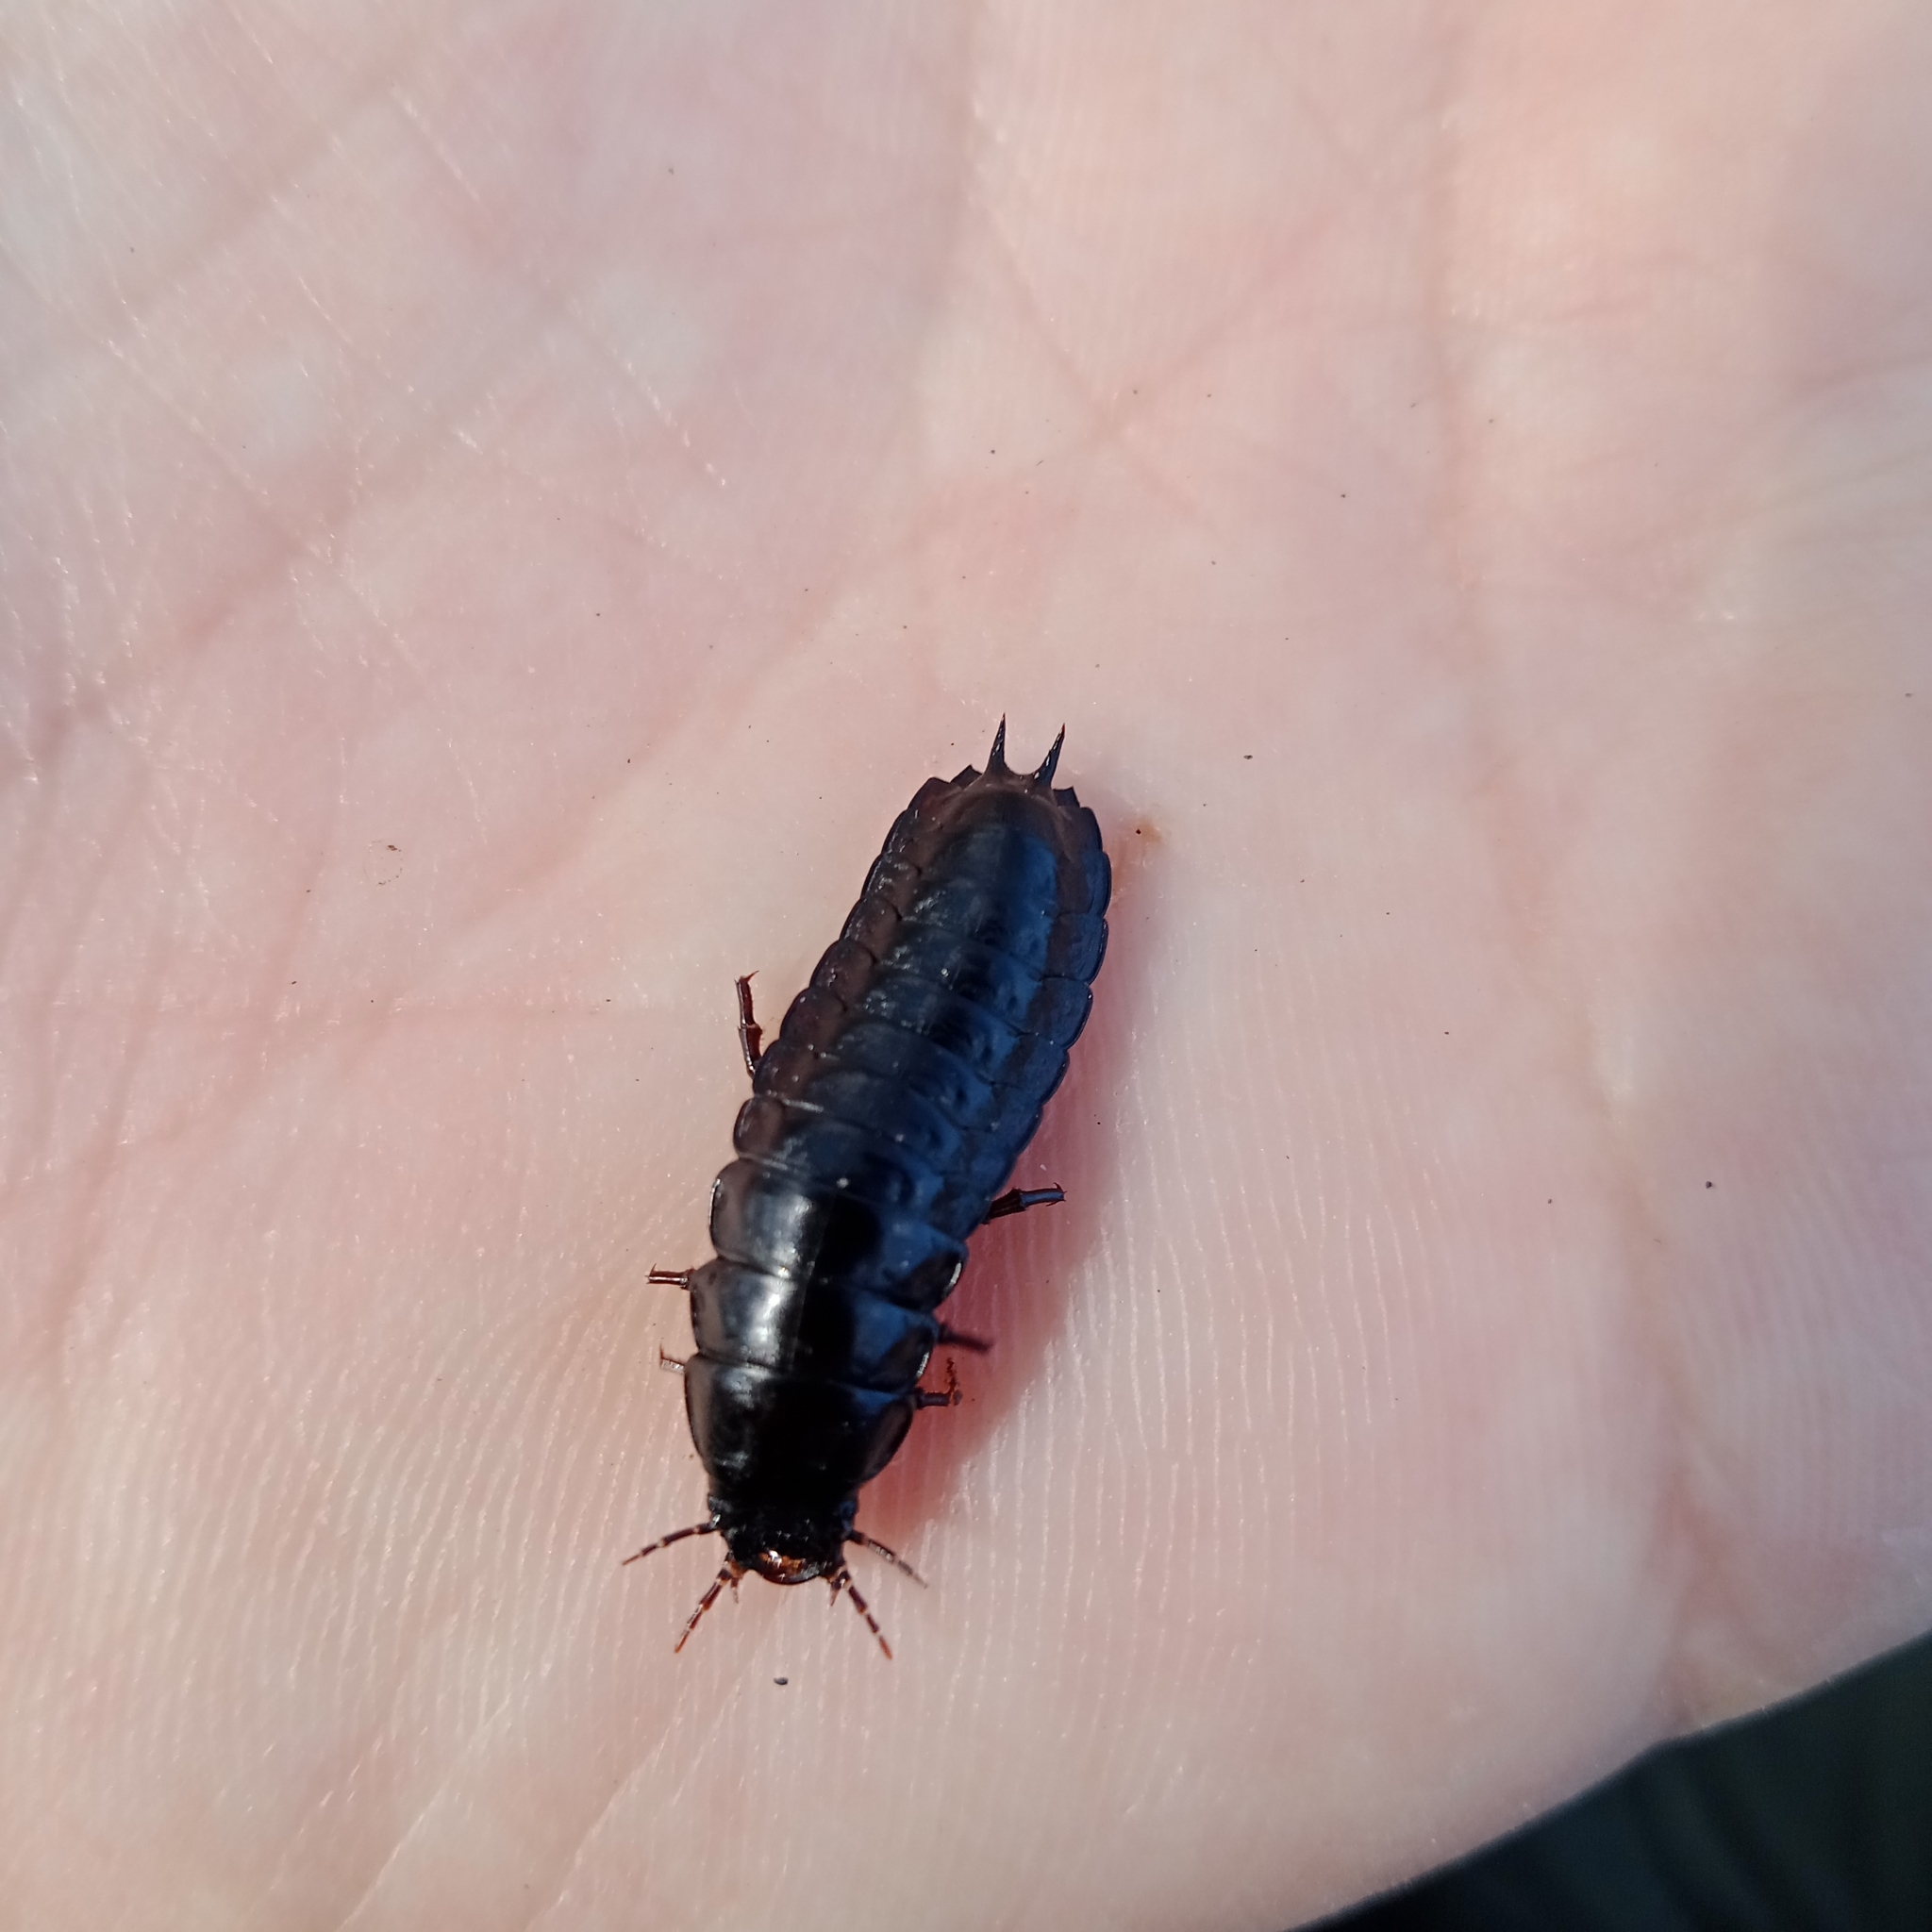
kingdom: Animalia
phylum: Arthropoda
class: Insecta
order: Coleoptera
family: Carabidae
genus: Carabus
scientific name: Carabus
